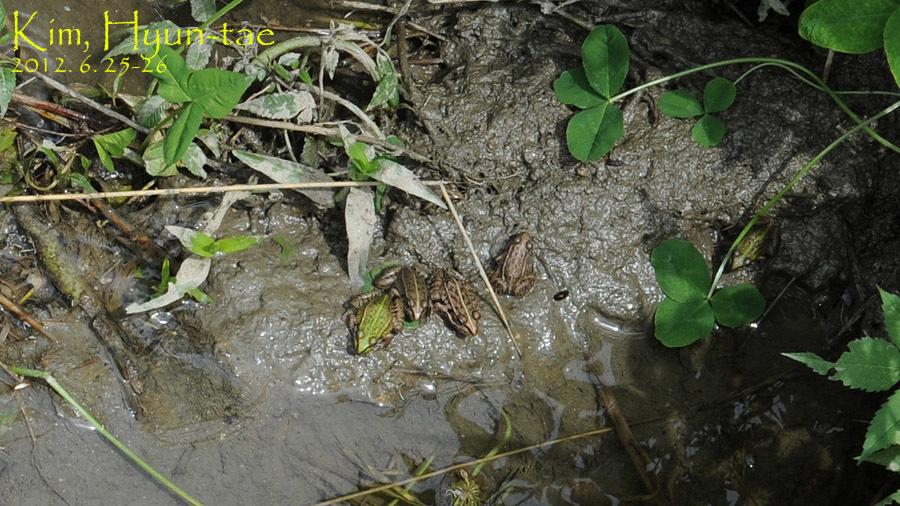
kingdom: Animalia
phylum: Chordata
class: Amphibia
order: Anura
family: Ranidae
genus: Pelophylax
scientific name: Pelophylax nigromaculatus
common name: Black-spotted pond frog
